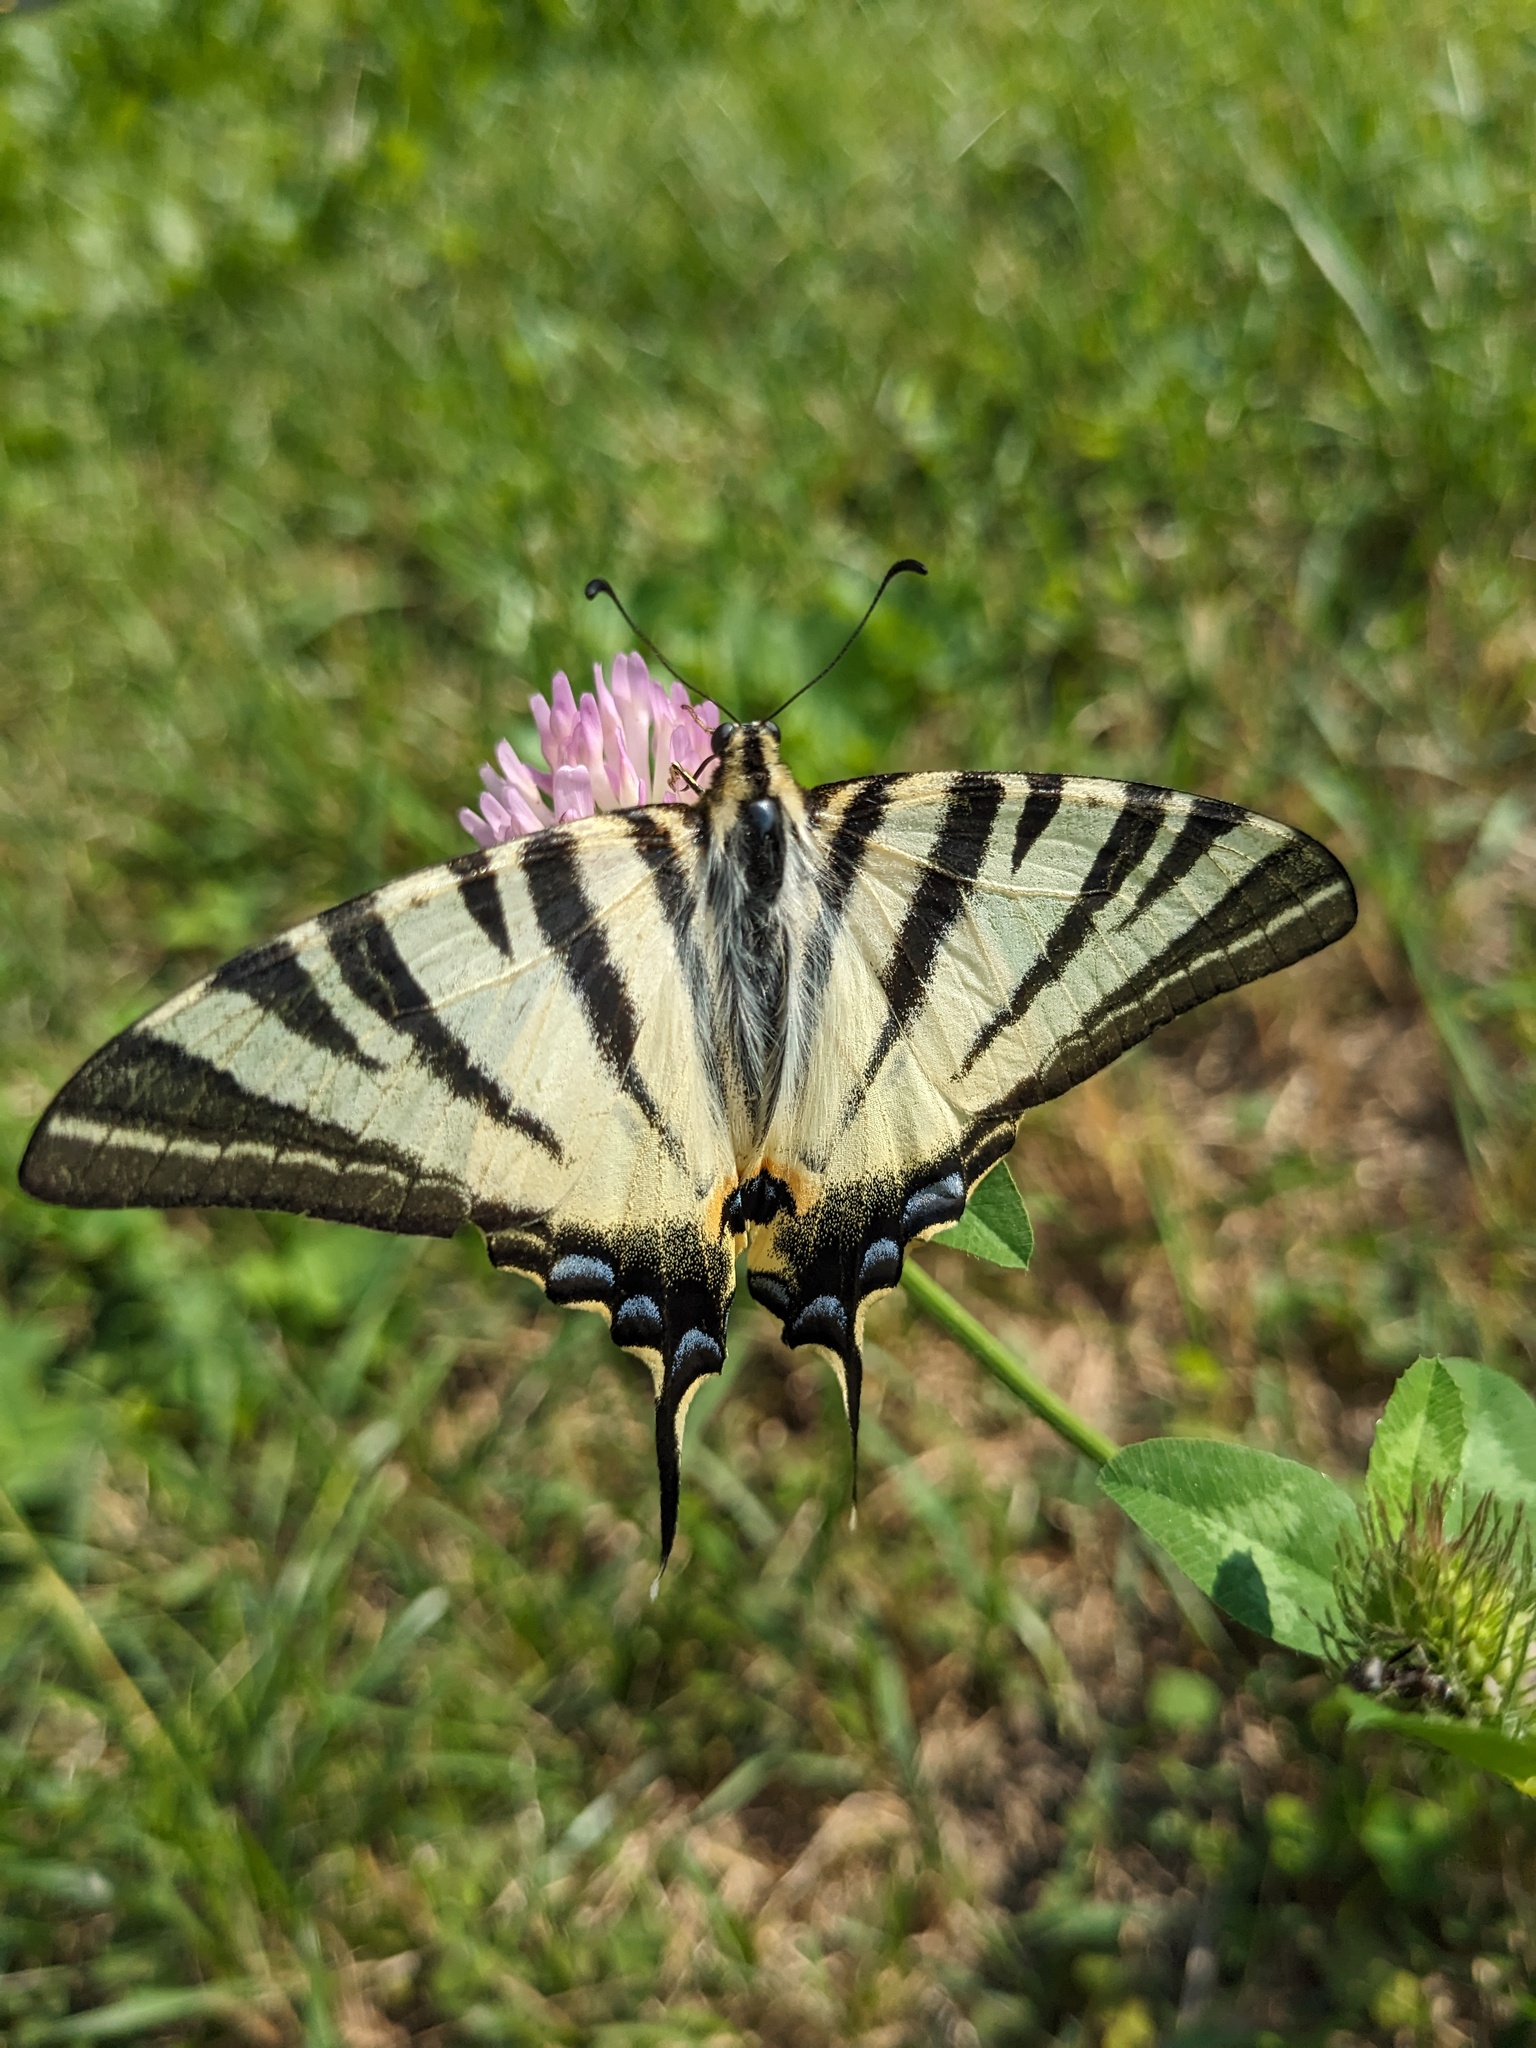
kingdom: Animalia
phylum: Arthropoda
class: Insecta
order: Lepidoptera
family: Papilionidae
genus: Iphiclides
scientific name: Iphiclides podalirius
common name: Scarce swallowtail
